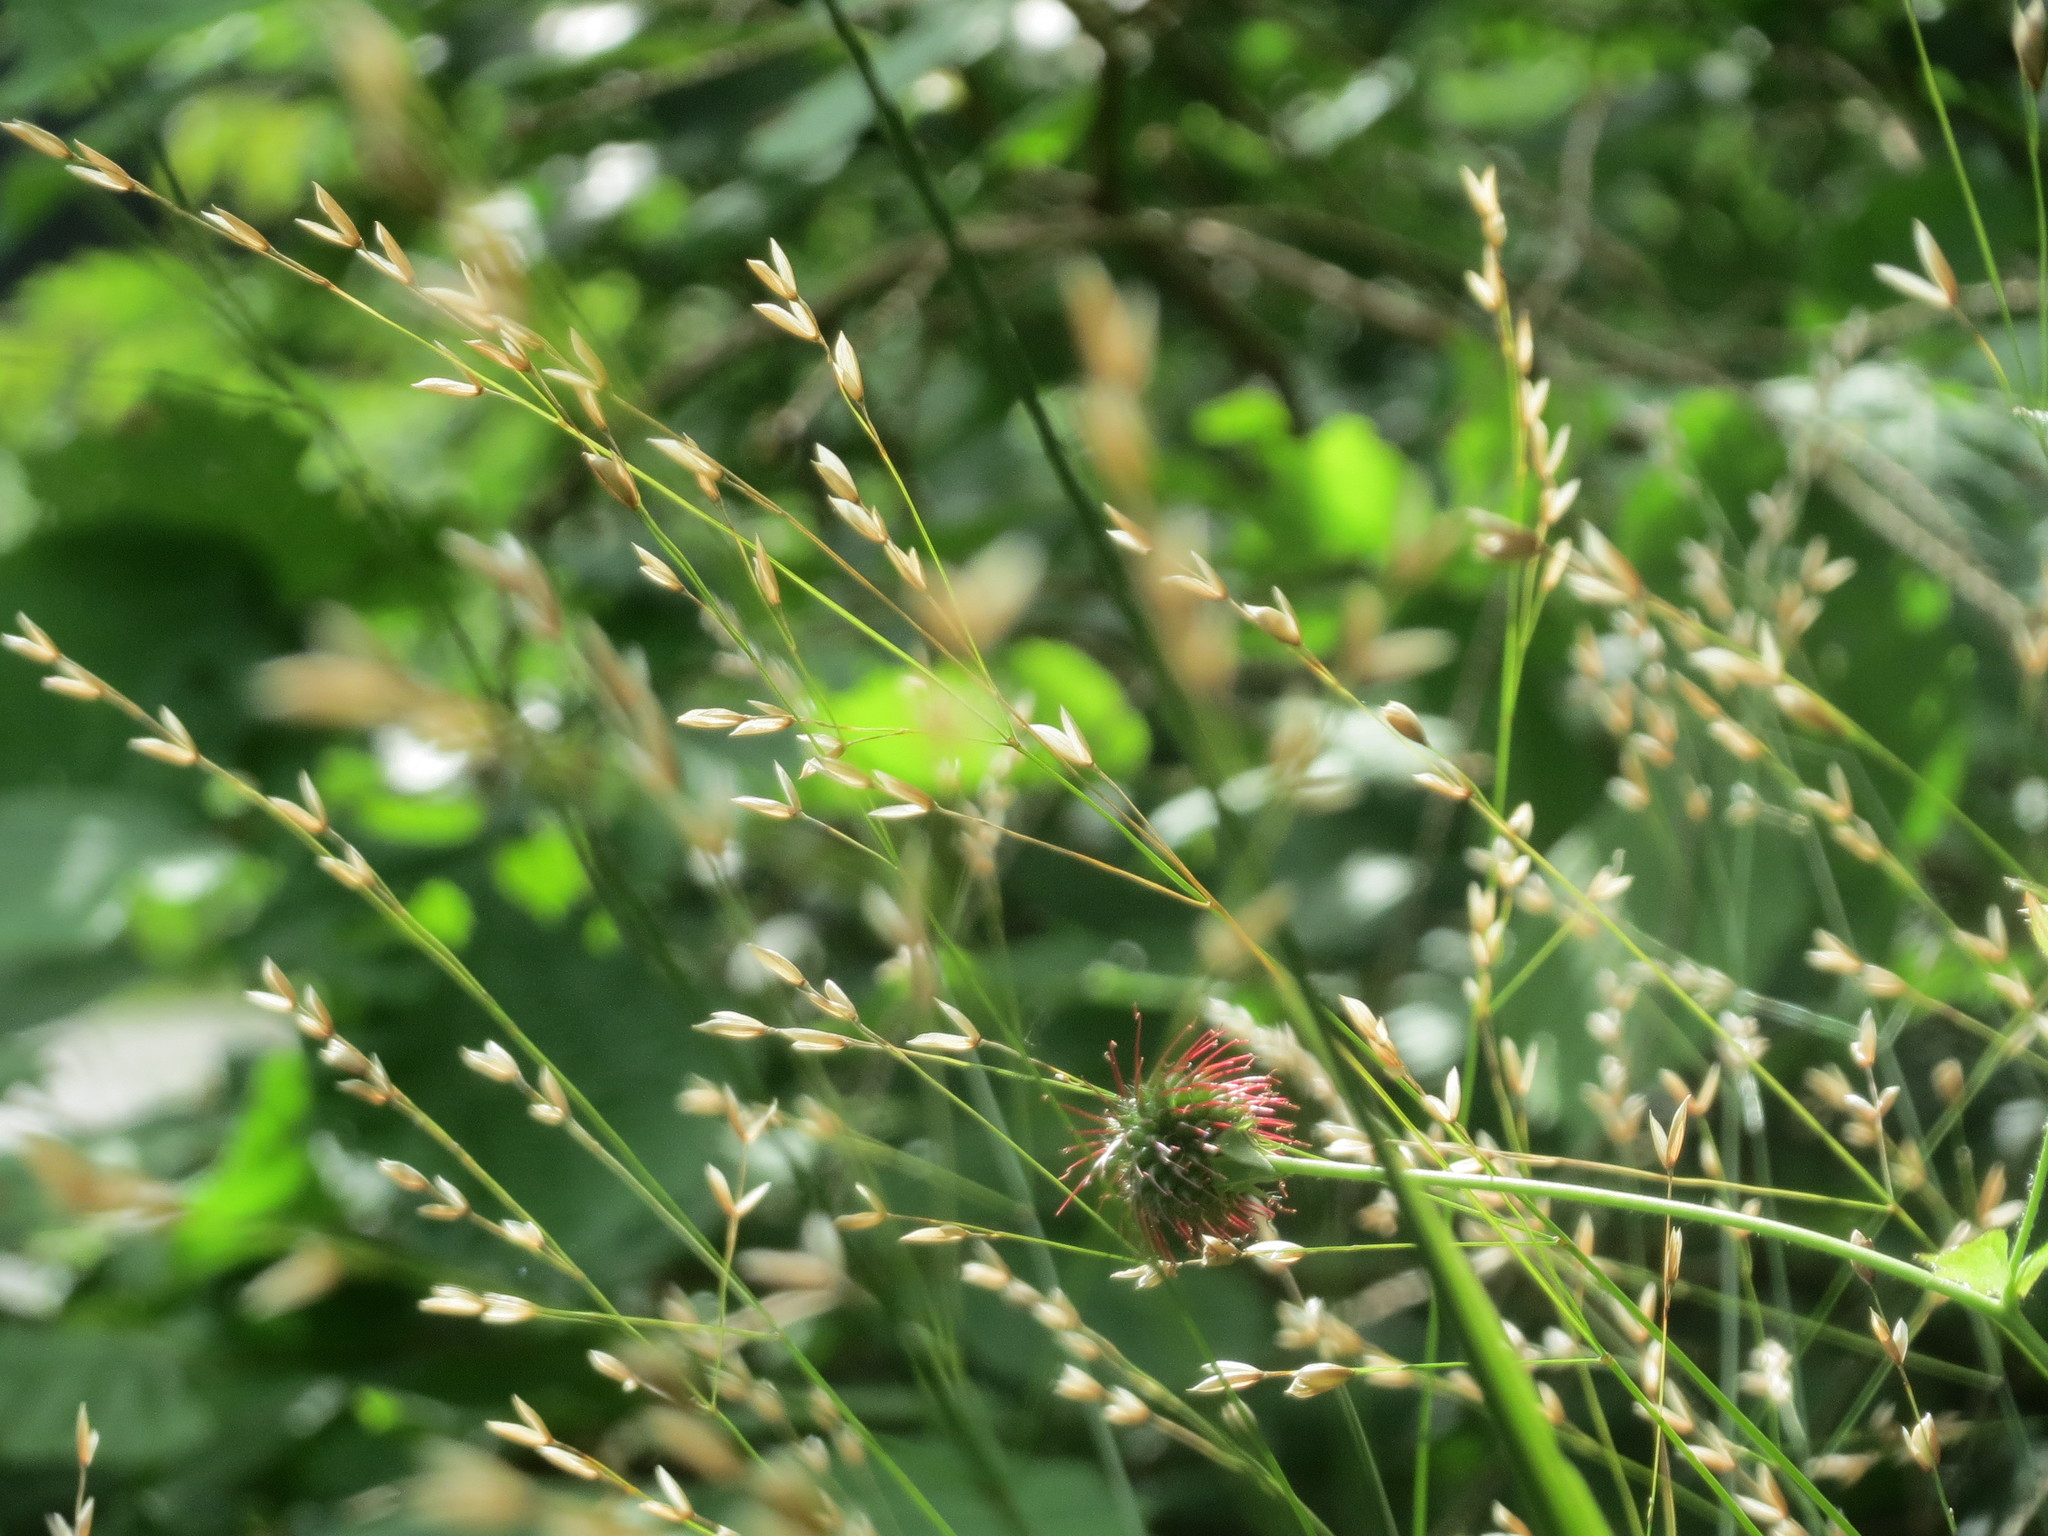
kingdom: Plantae
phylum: Tracheophyta
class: Liliopsida
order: Poales
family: Poaceae
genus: Melica
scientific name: Melica uniflora
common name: Wood melick
